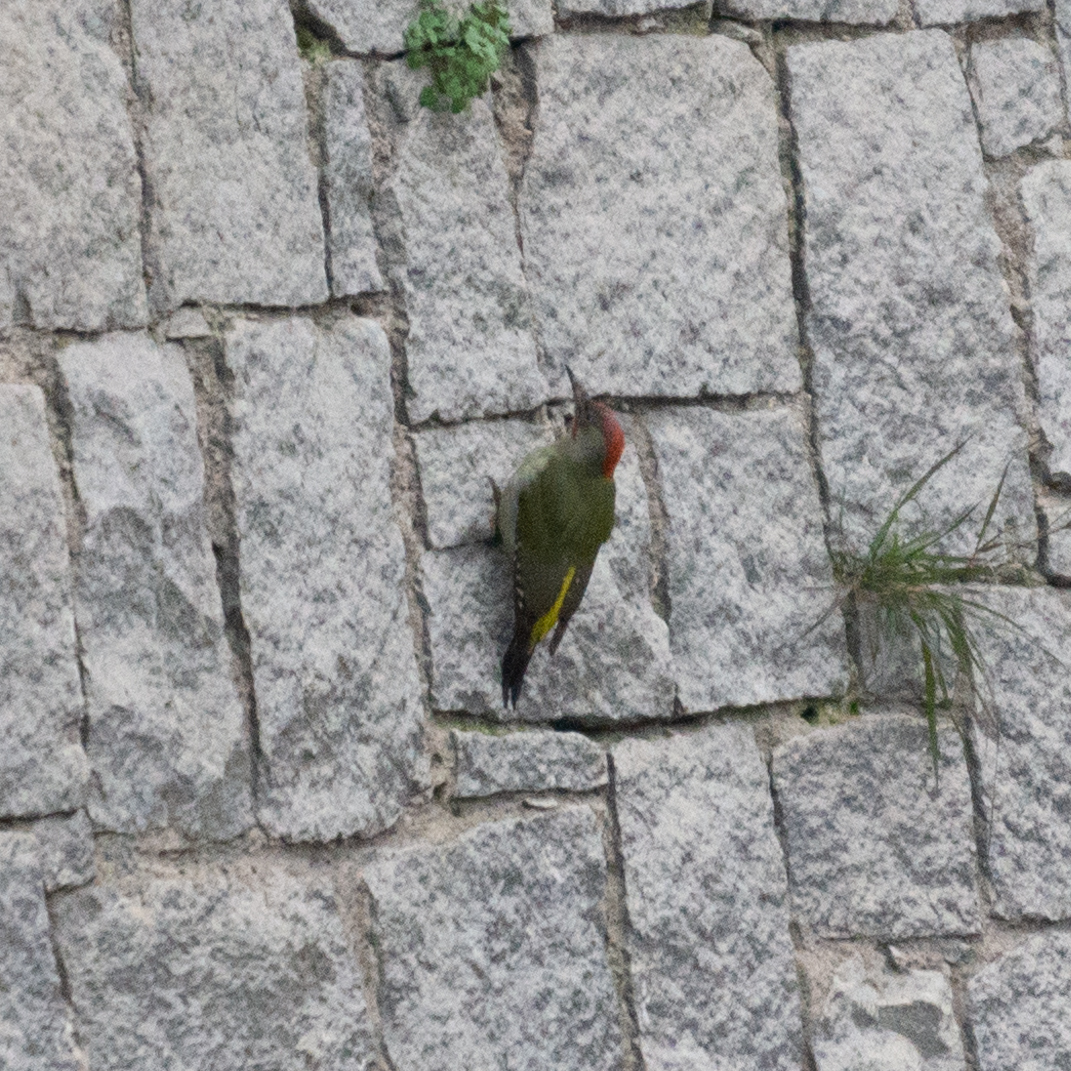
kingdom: Animalia
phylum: Chordata
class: Aves
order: Piciformes
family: Picidae
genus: Picus
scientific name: Picus sharpei
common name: Iberian green woodpecker
